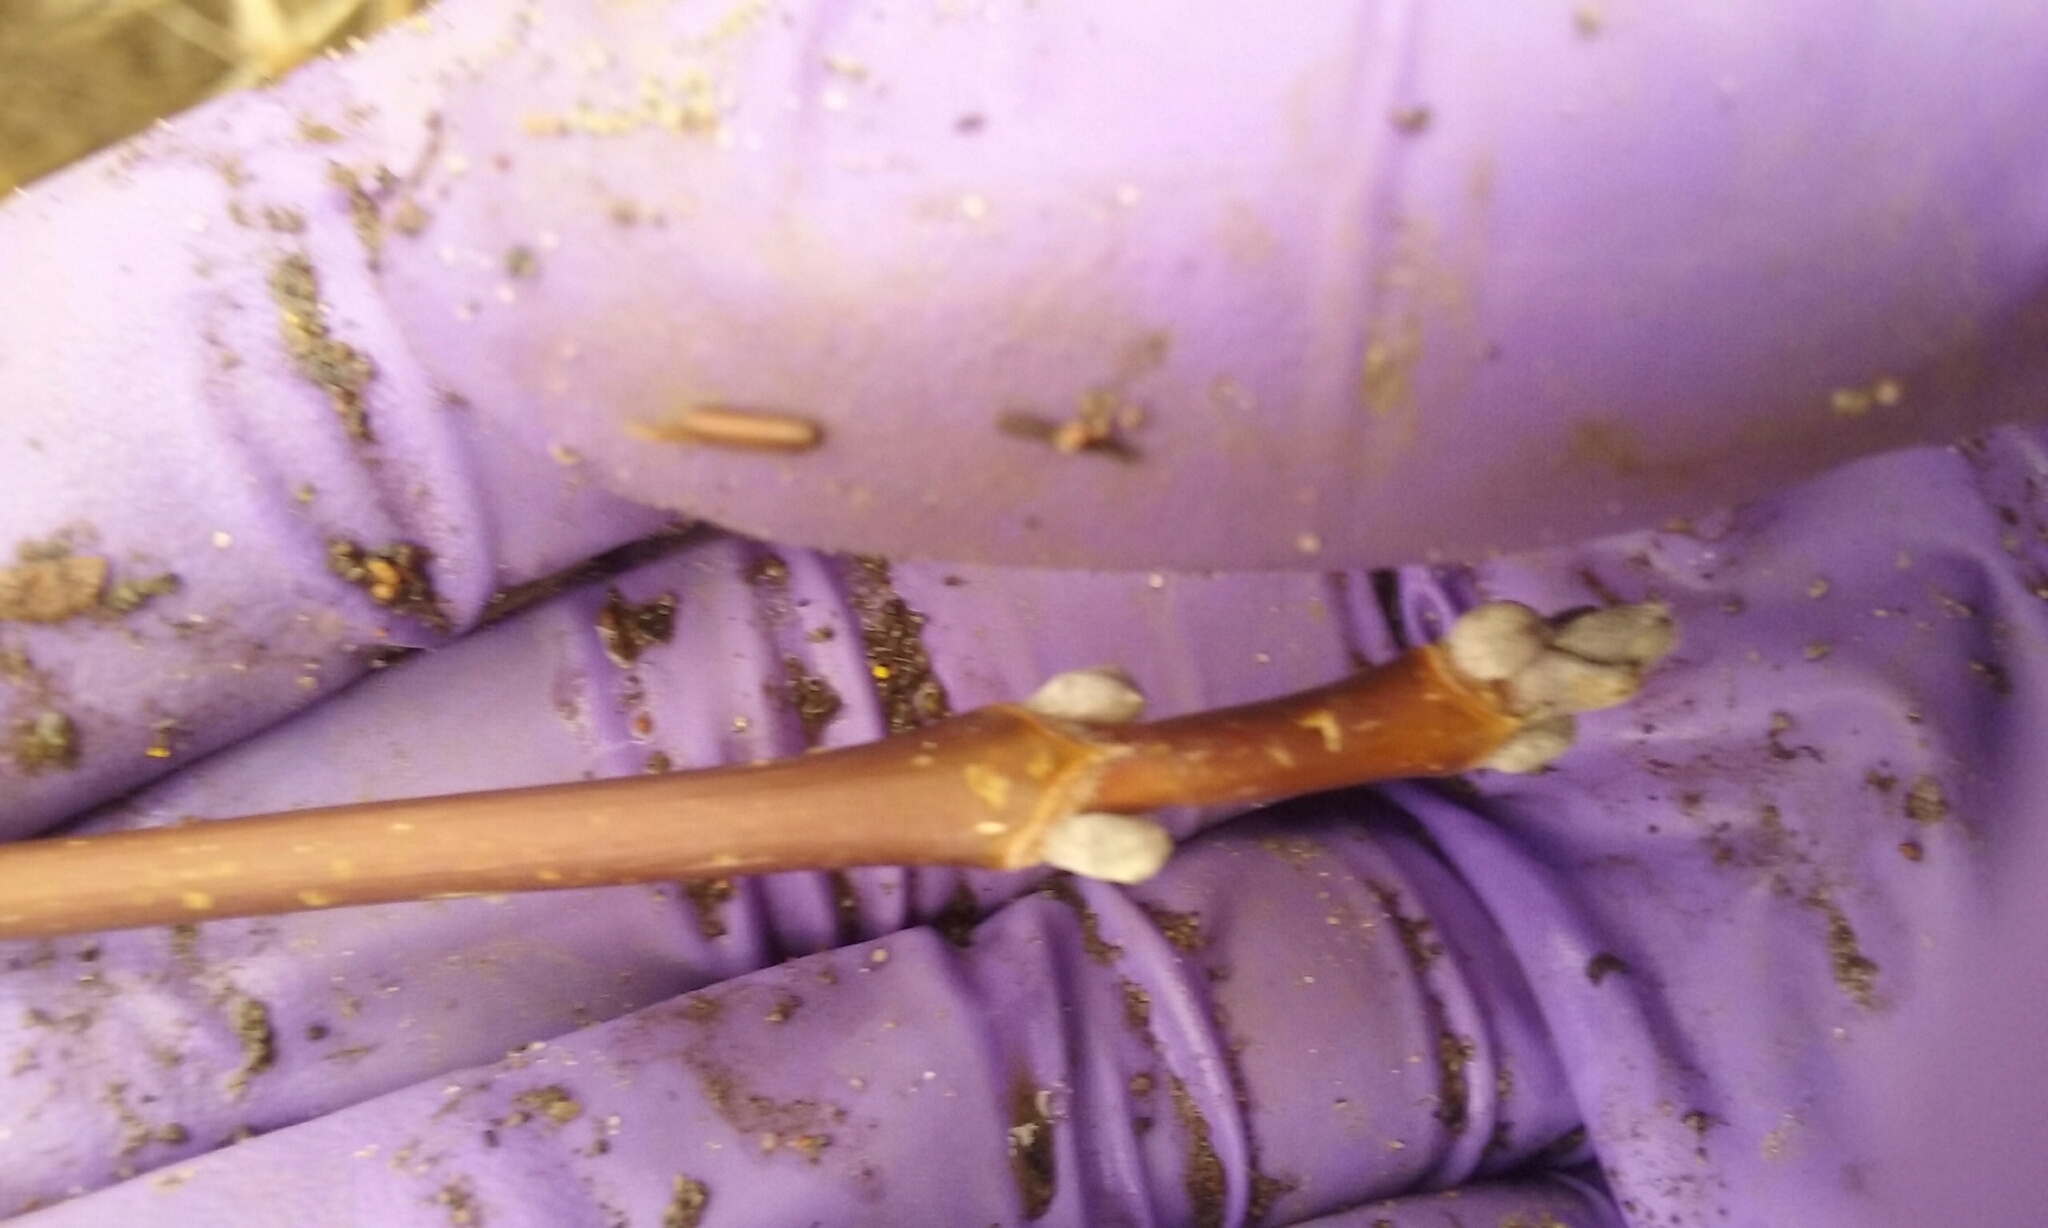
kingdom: Plantae
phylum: Tracheophyta
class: Magnoliopsida
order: Sapindales
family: Sapindaceae
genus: Acer
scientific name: Acer negundo
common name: Ashleaf maple
